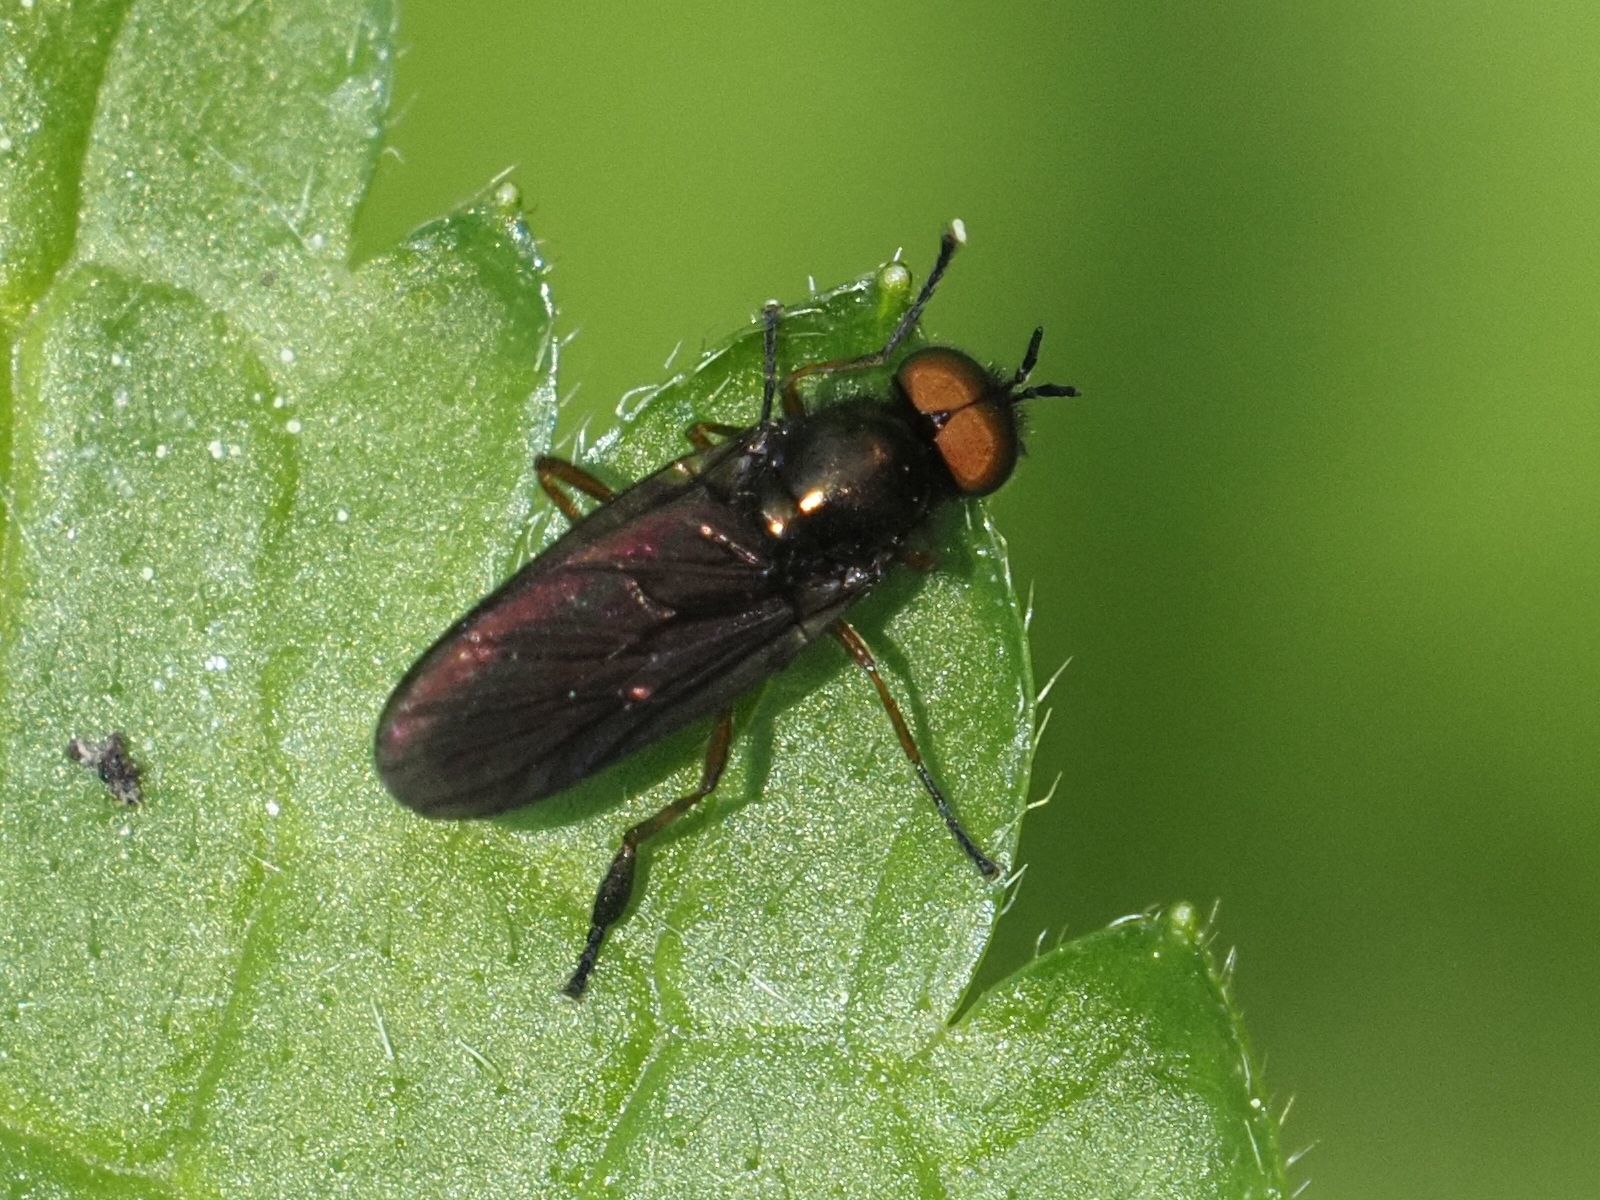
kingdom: Animalia
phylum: Arthropoda
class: Insecta
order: Diptera
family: Stratiomyidae
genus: Beris
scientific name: Beris chalybata
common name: Murky-legged black legionnaire
